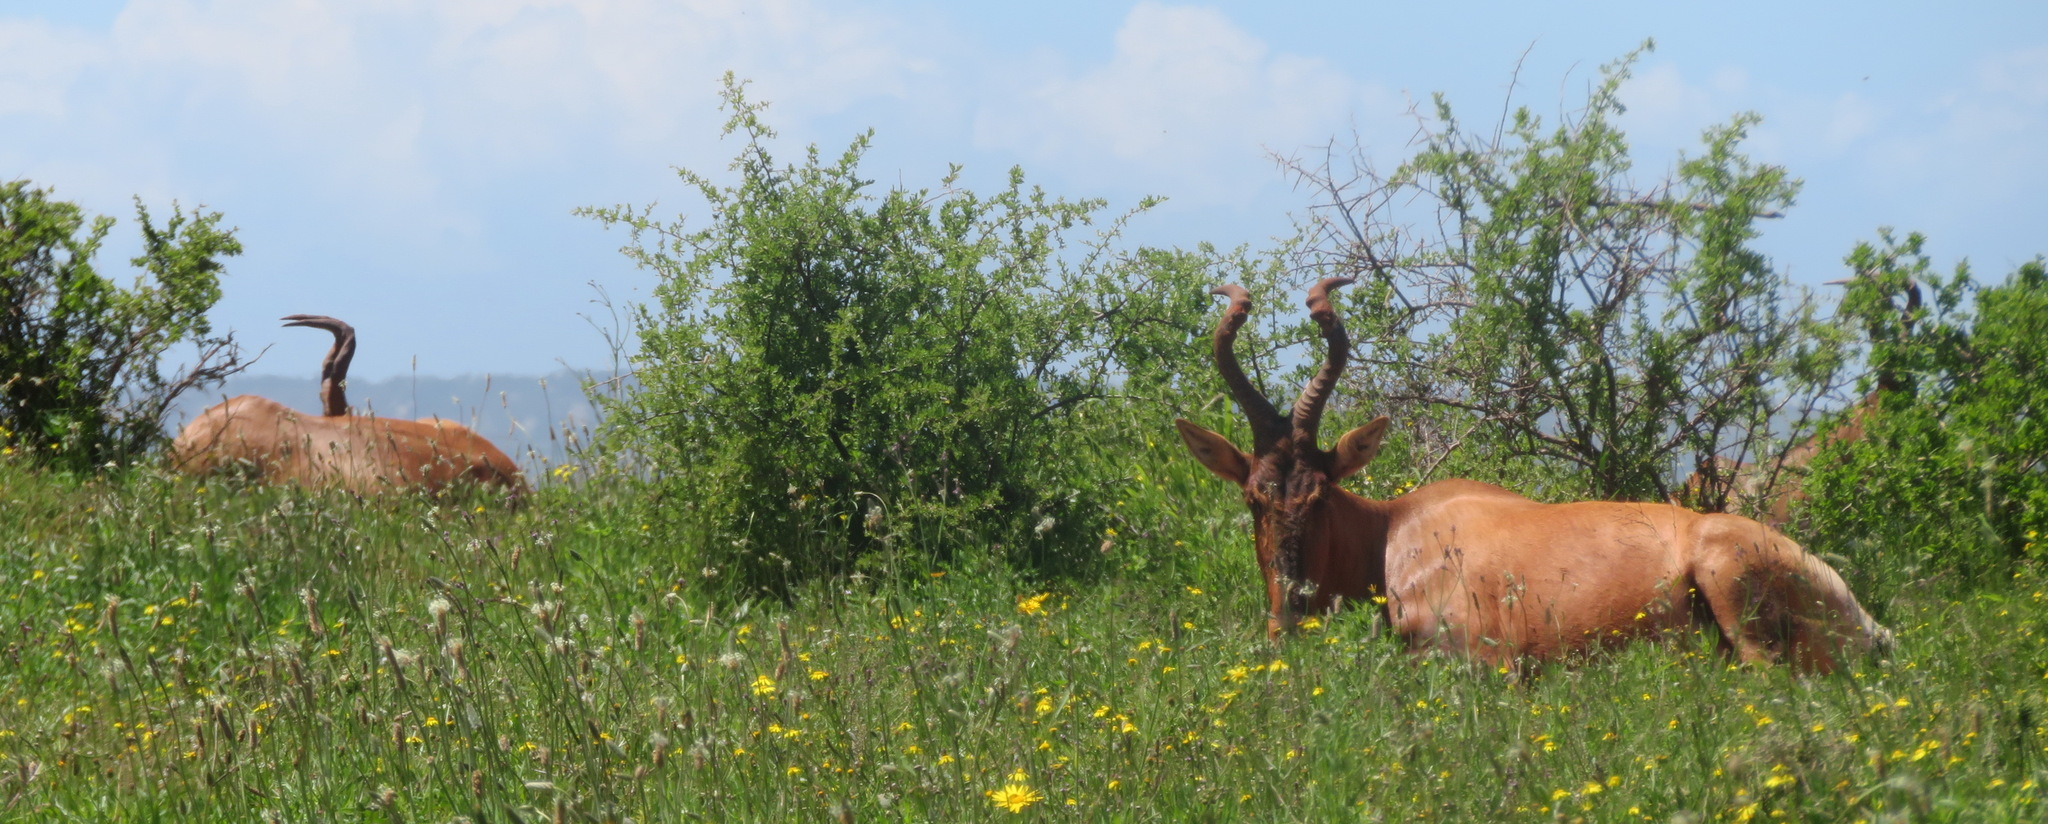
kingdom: Animalia
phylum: Chordata
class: Mammalia
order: Artiodactyla
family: Bovidae
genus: Alcelaphus
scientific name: Alcelaphus caama
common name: Red hartebeest
